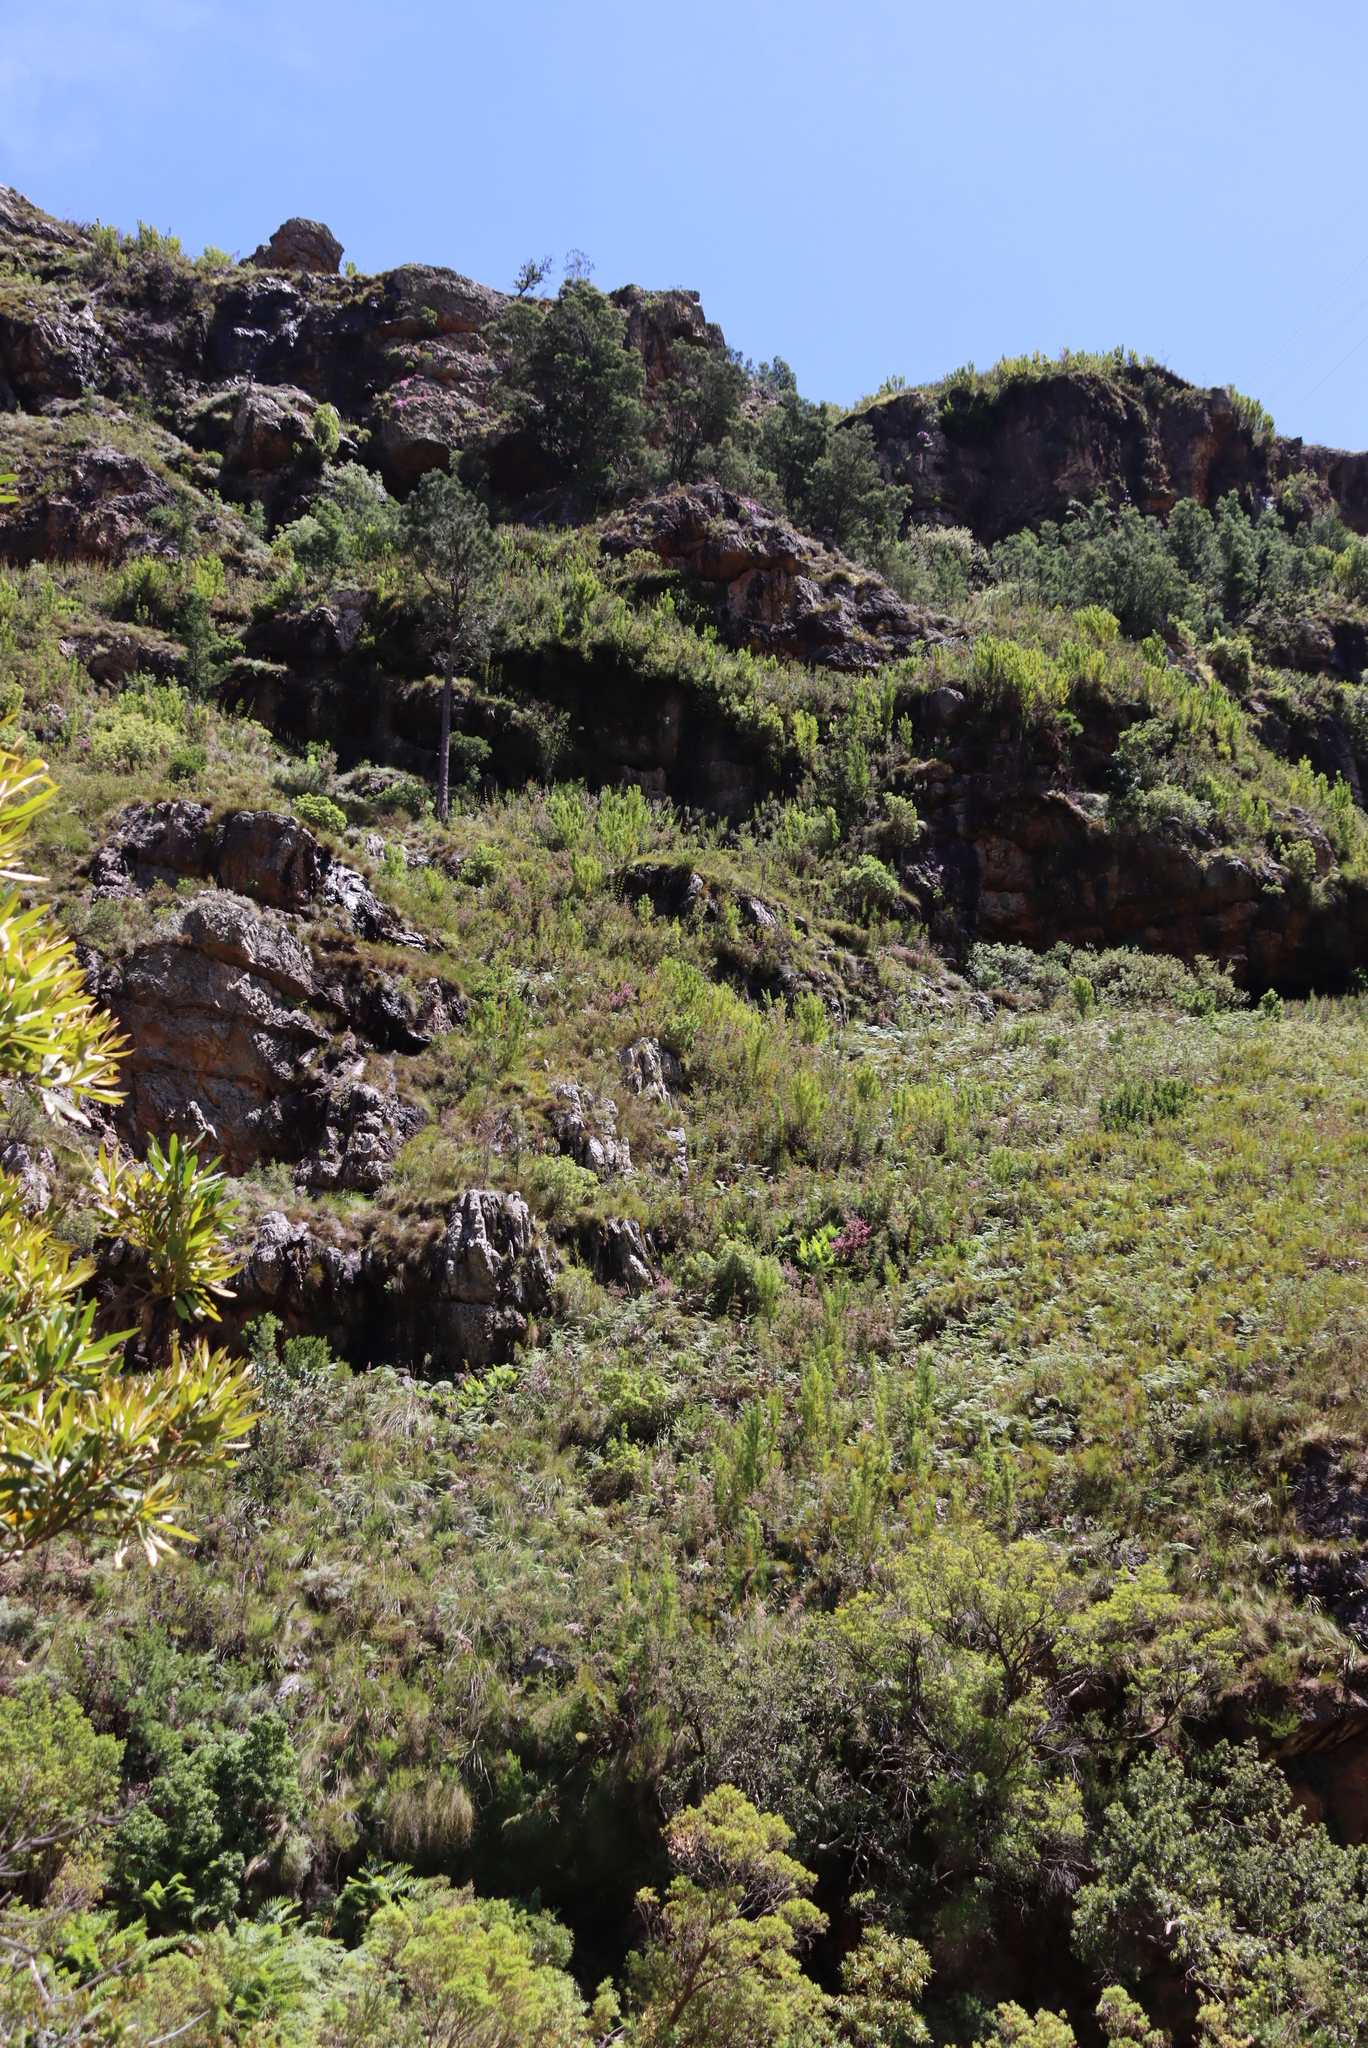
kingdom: Plantae
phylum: Tracheophyta
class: Magnoliopsida
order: Fabales
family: Fabaceae
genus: Acacia
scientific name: Acacia mearnsii
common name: Black wattle
